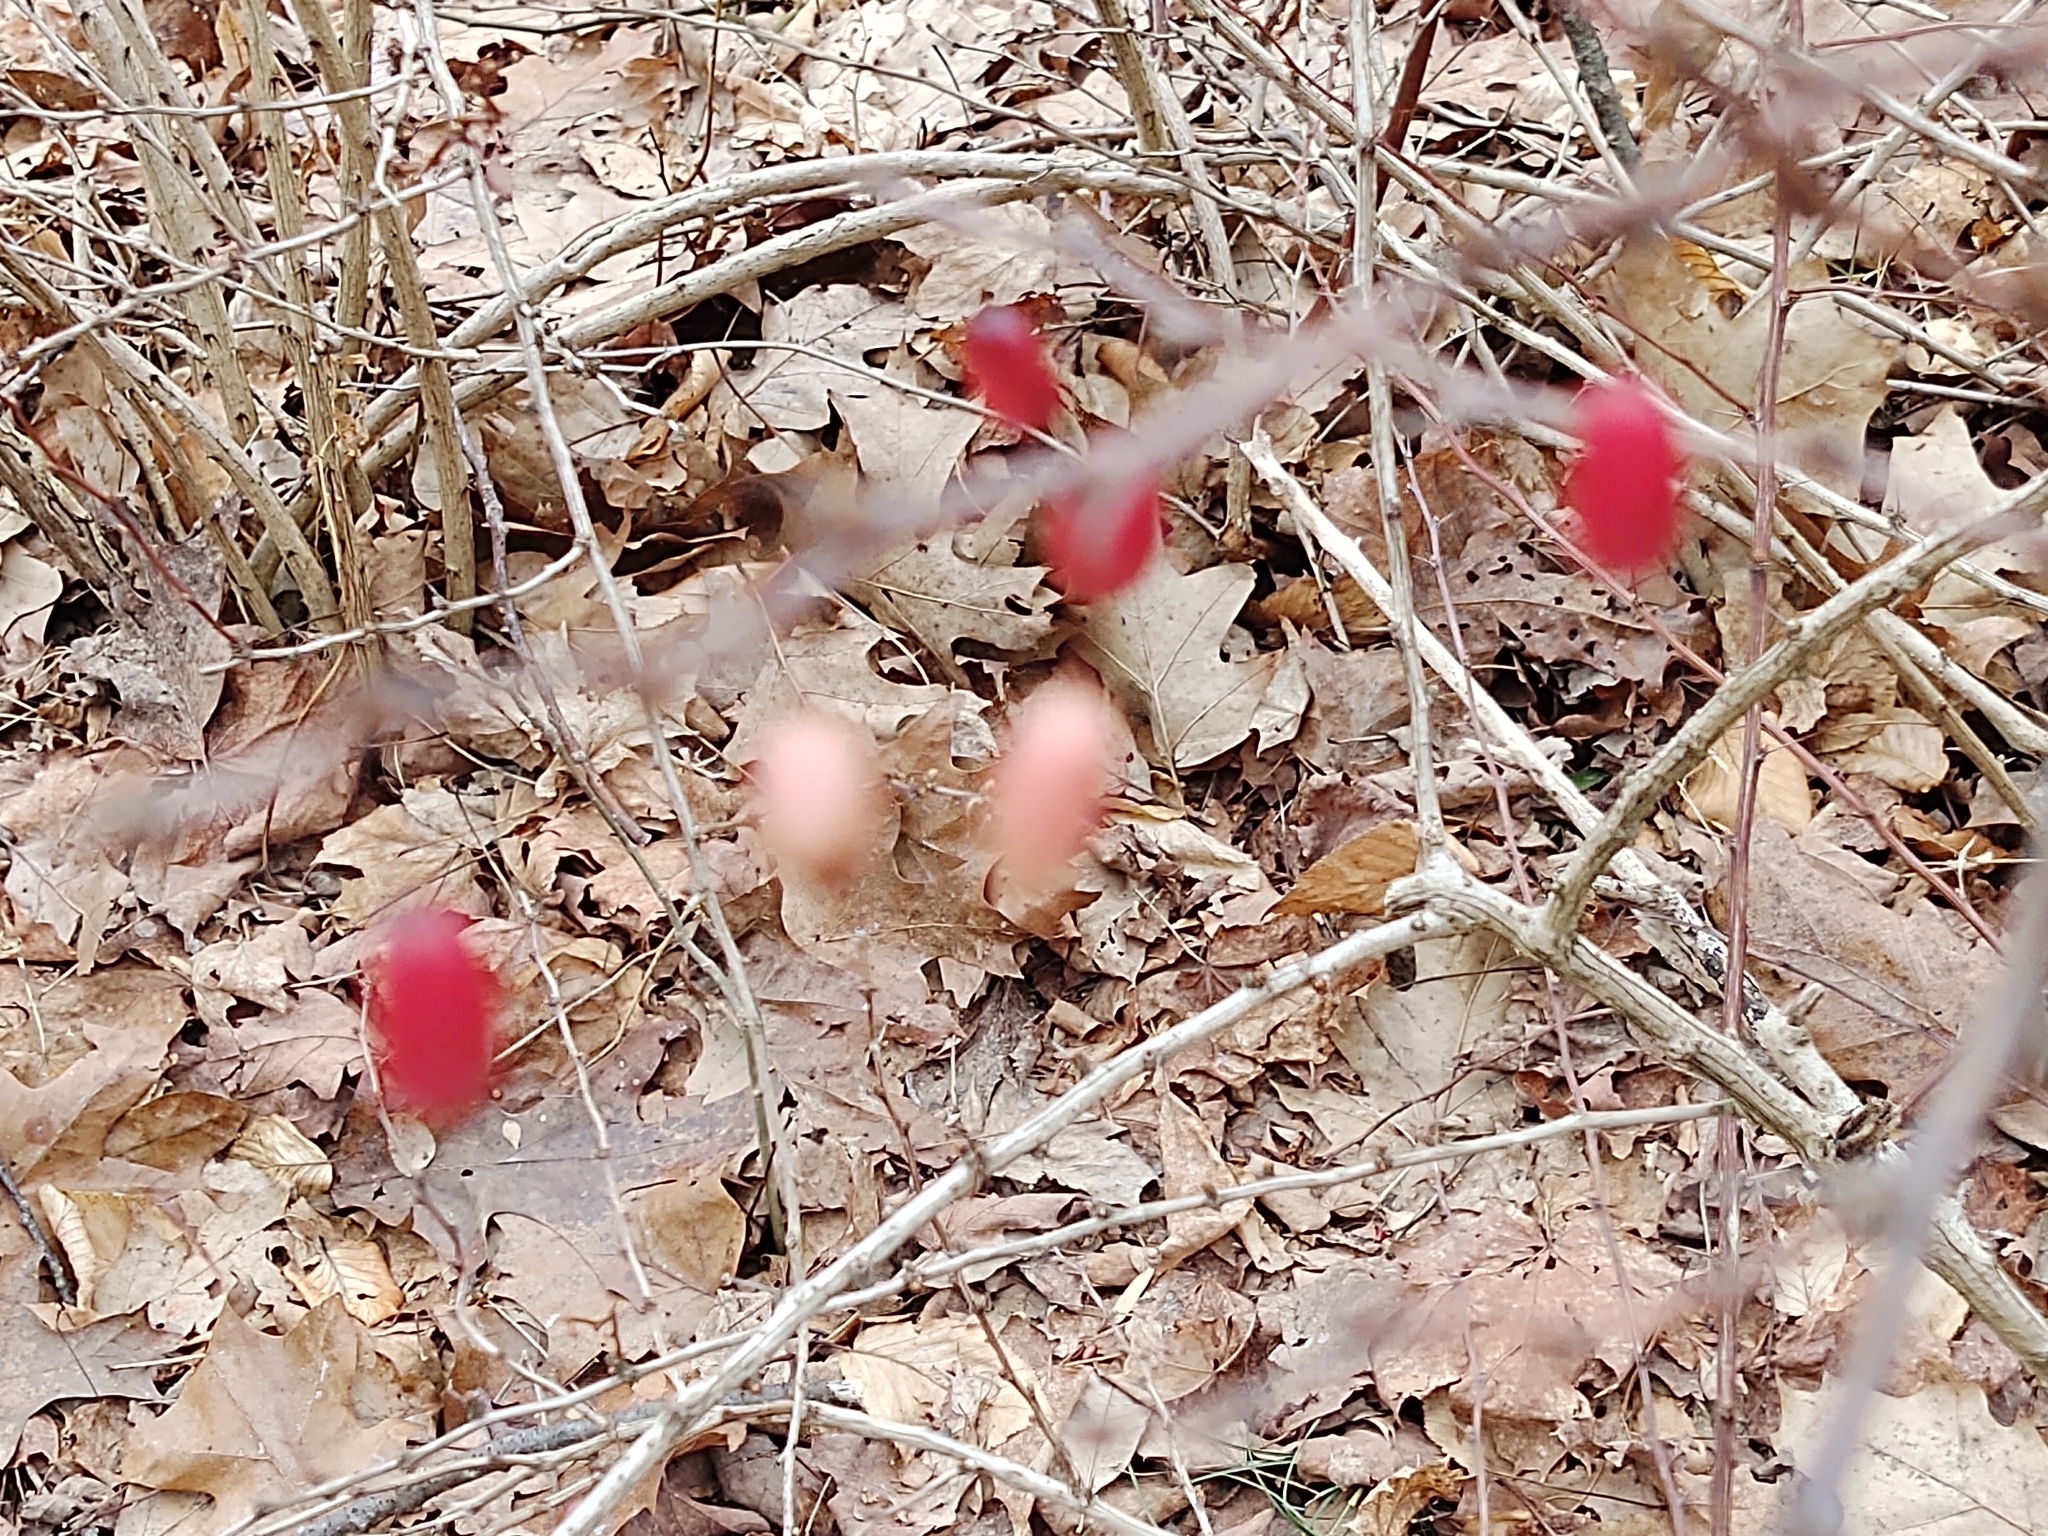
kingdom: Plantae
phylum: Tracheophyta
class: Magnoliopsida
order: Ranunculales
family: Berberidaceae
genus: Berberis
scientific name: Berberis thunbergii
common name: Japanese barberry
